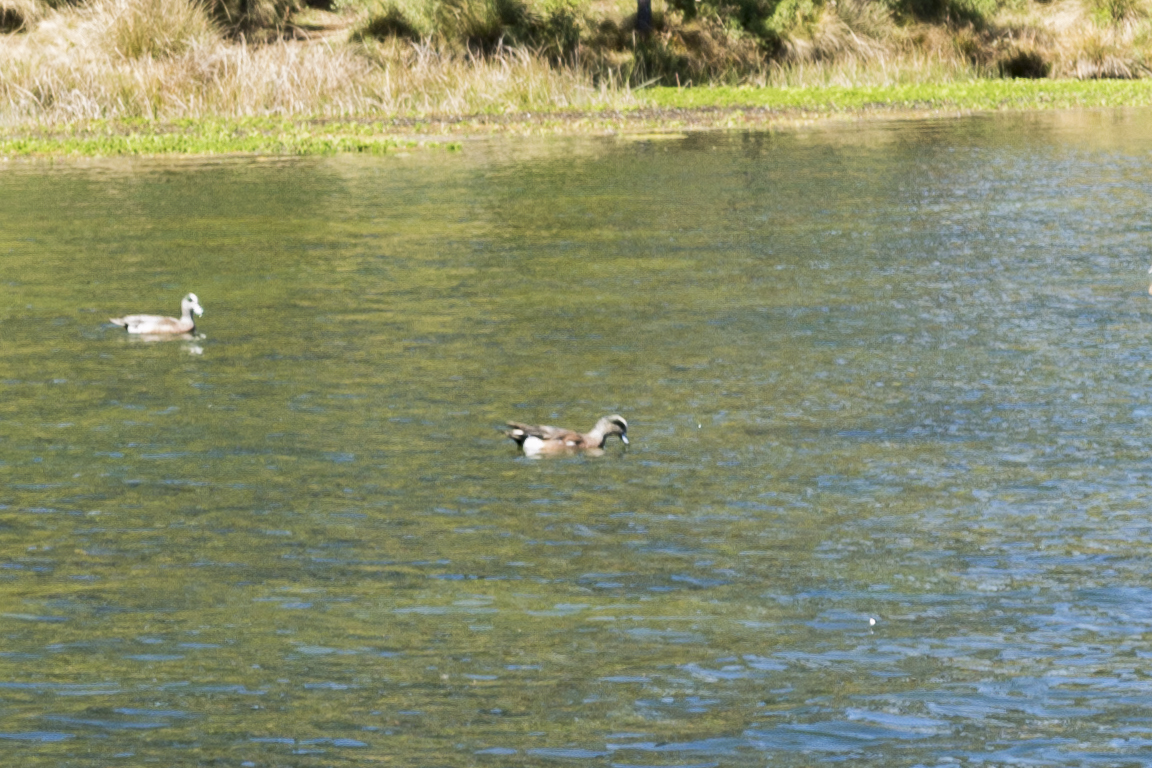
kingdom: Animalia
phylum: Chordata
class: Aves
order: Anseriformes
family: Anatidae
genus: Mareca
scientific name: Mareca americana
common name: American wigeon
